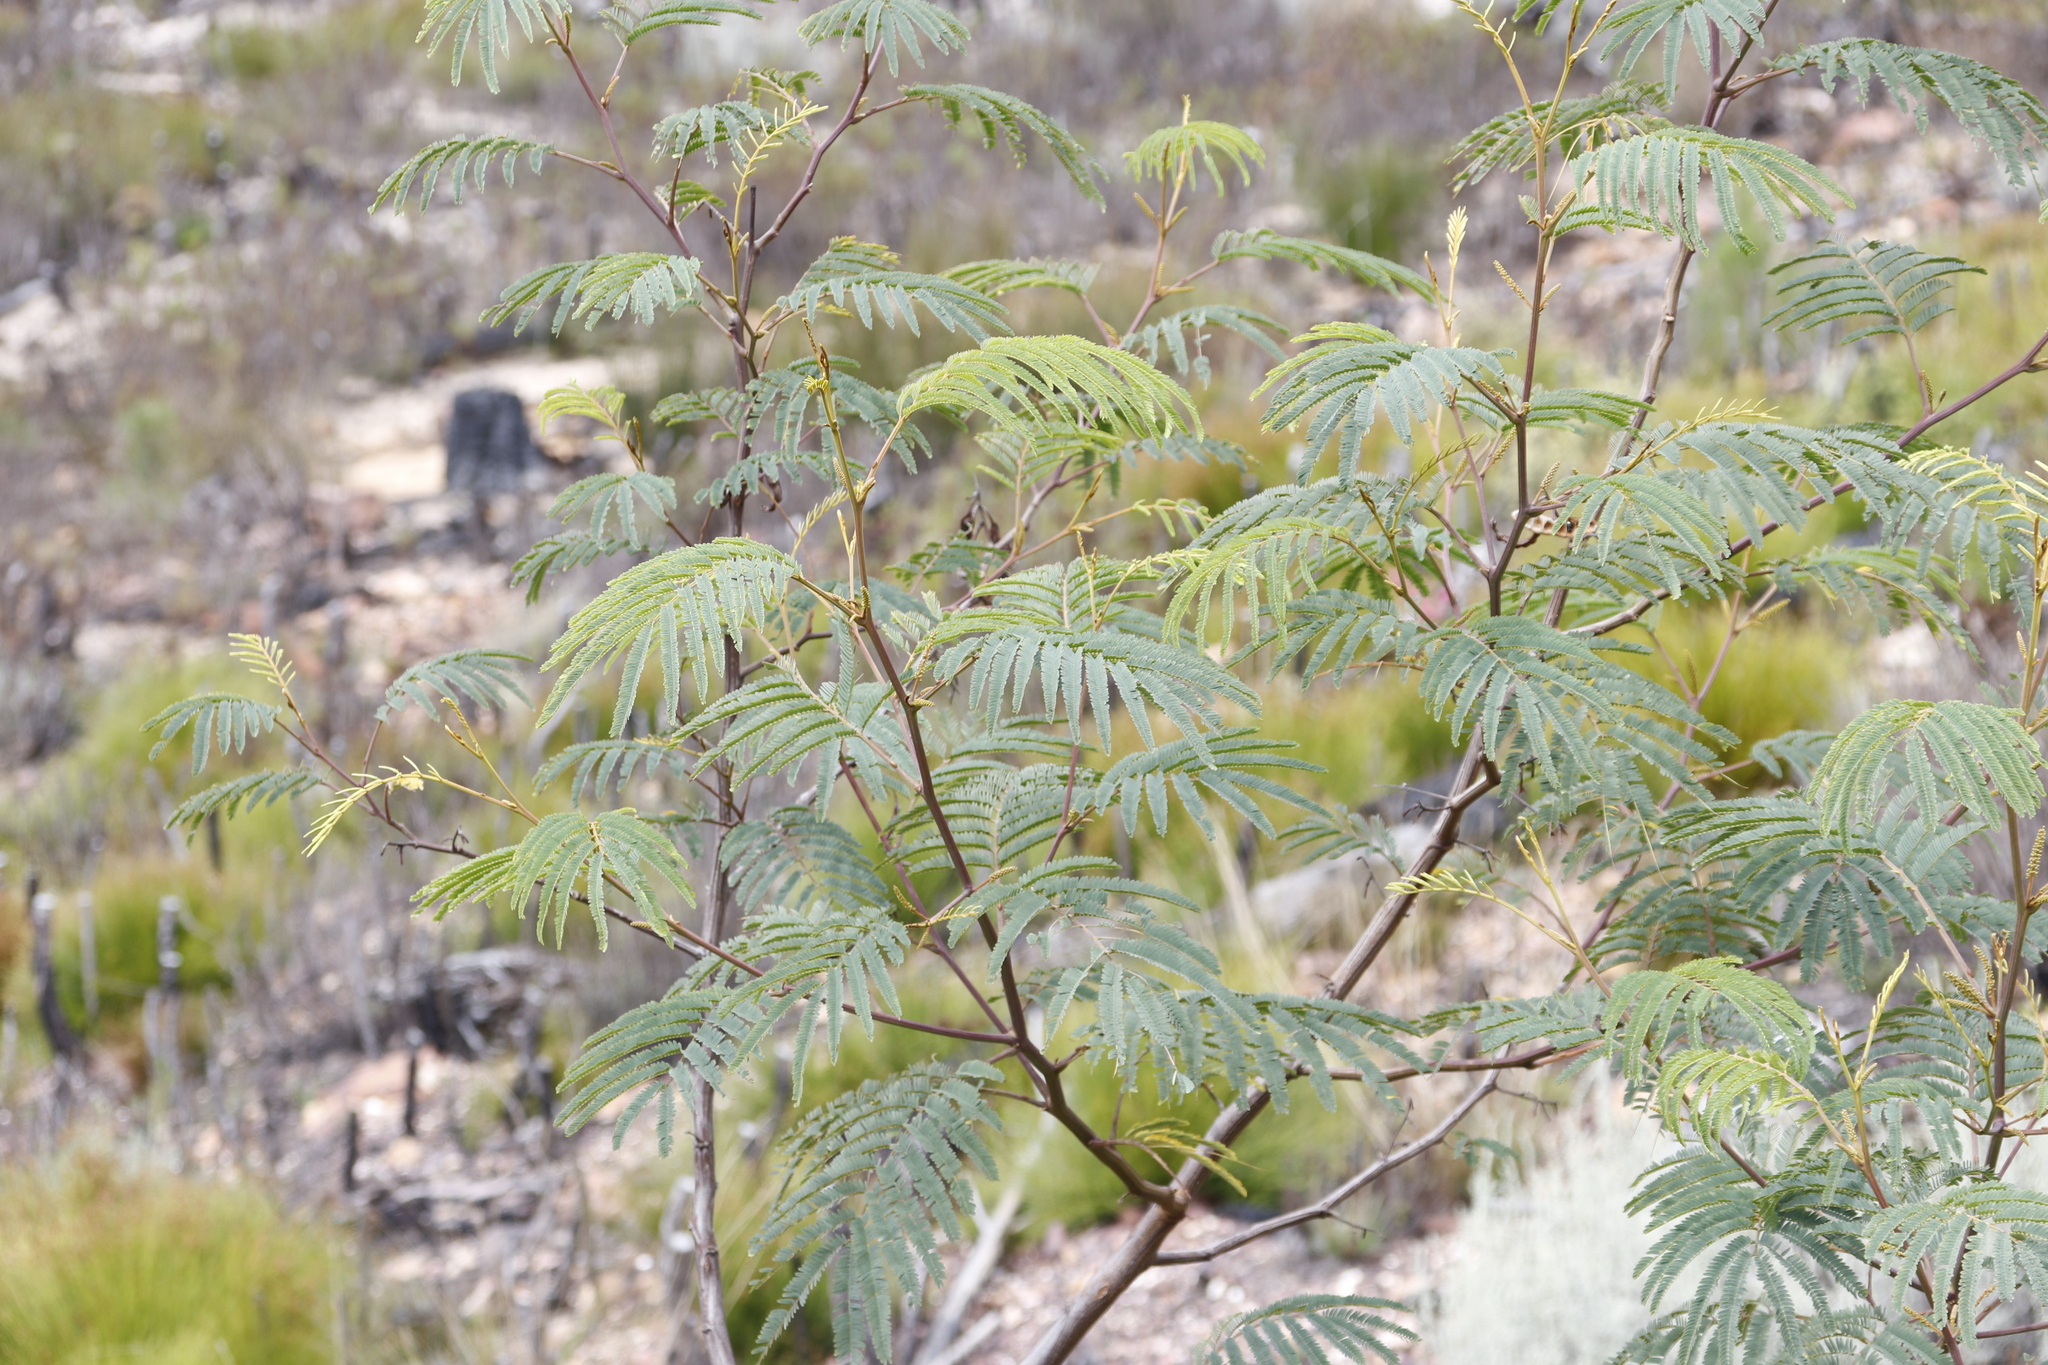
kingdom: Plantae
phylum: Tracheophyta
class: Magnoliopsida
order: Fabales
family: Fabaceae
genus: Paraserianthes
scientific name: Paraserianthes lophantha
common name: Plume albizia
